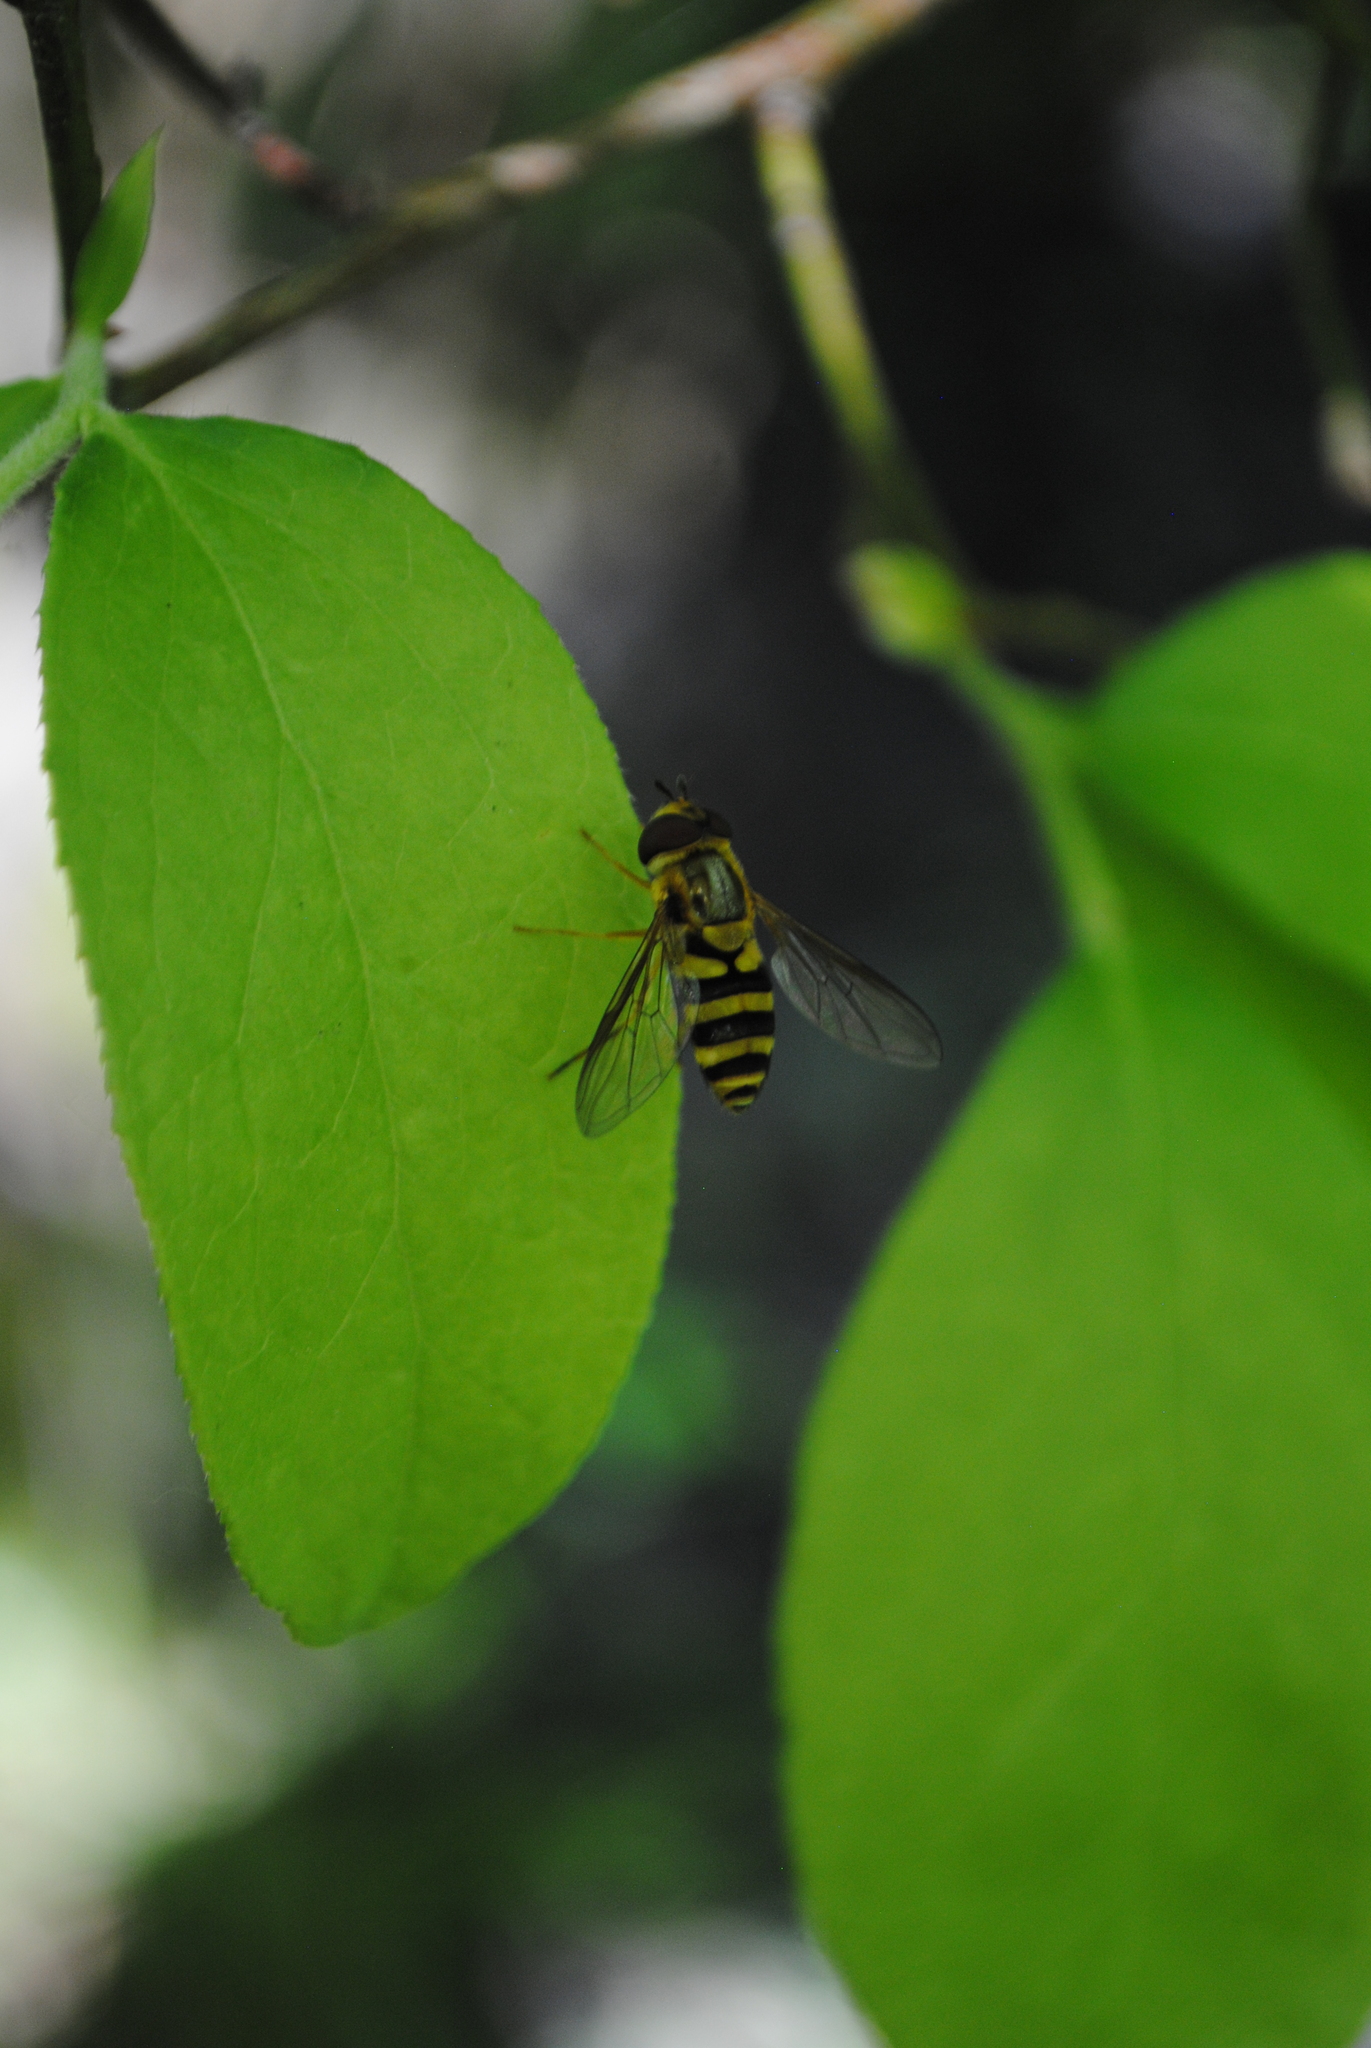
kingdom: Animalia
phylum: Arthropoda
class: Insecta
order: Diptera
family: Syrphidae
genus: Syrphus
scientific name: Syrphus knabi
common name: Eastern flower fly
